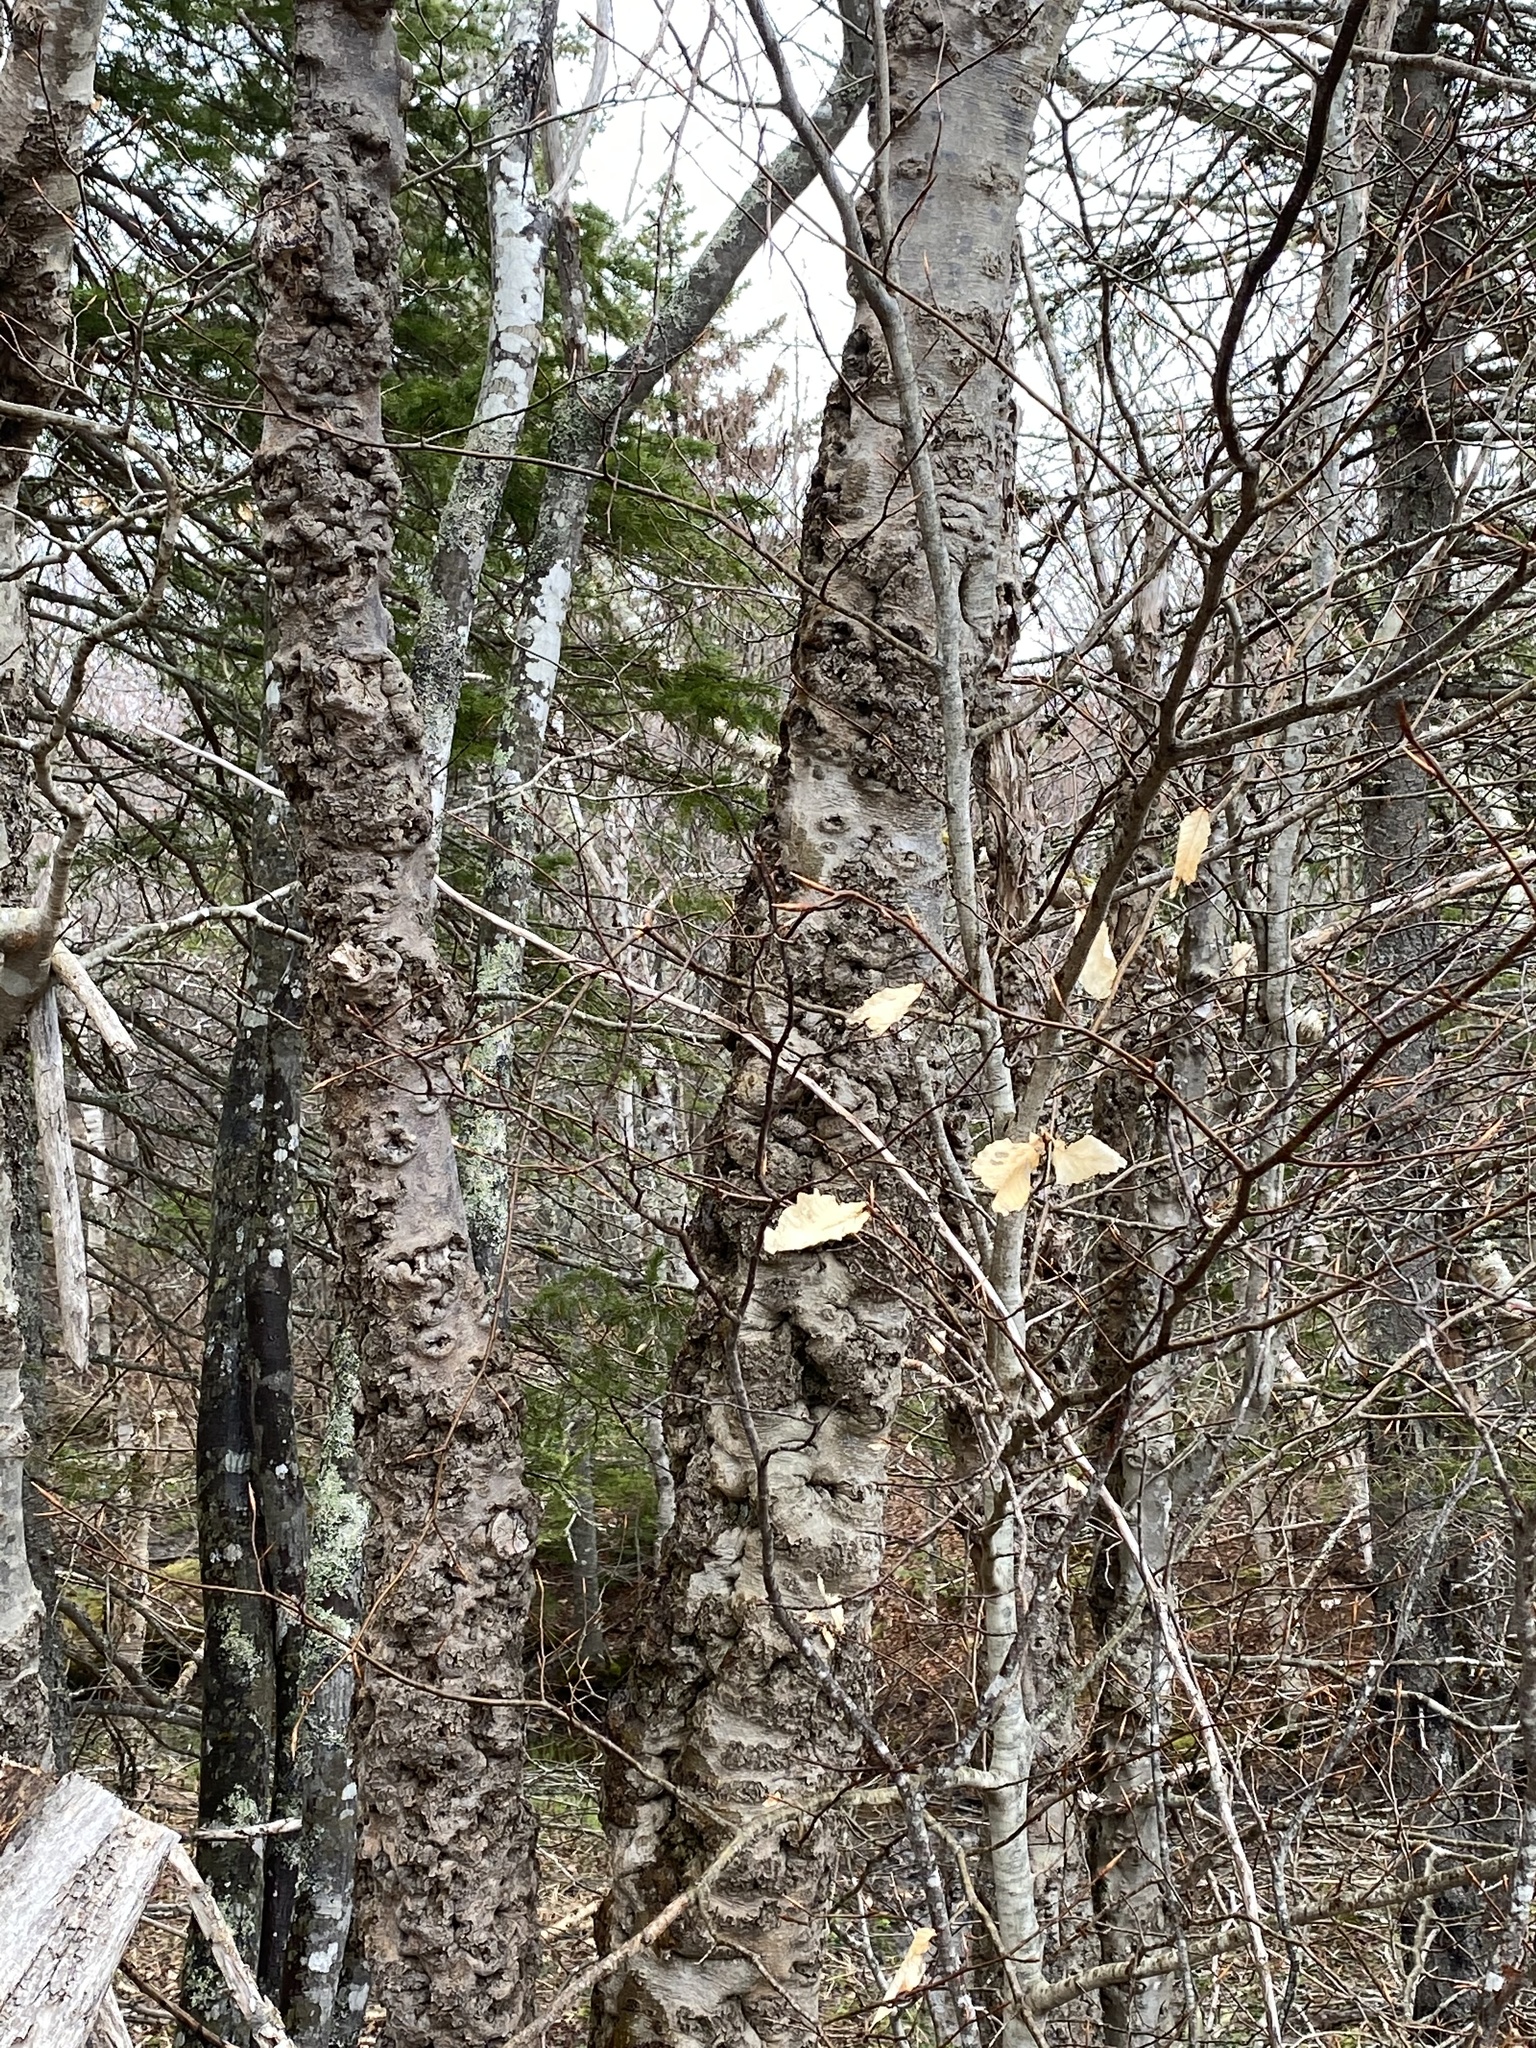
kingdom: Plantae
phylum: Tracheophyta
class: Magnoliopsida
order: Fagales
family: Fagaceae
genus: Fagus
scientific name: Fagus grandifolia
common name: American beech
